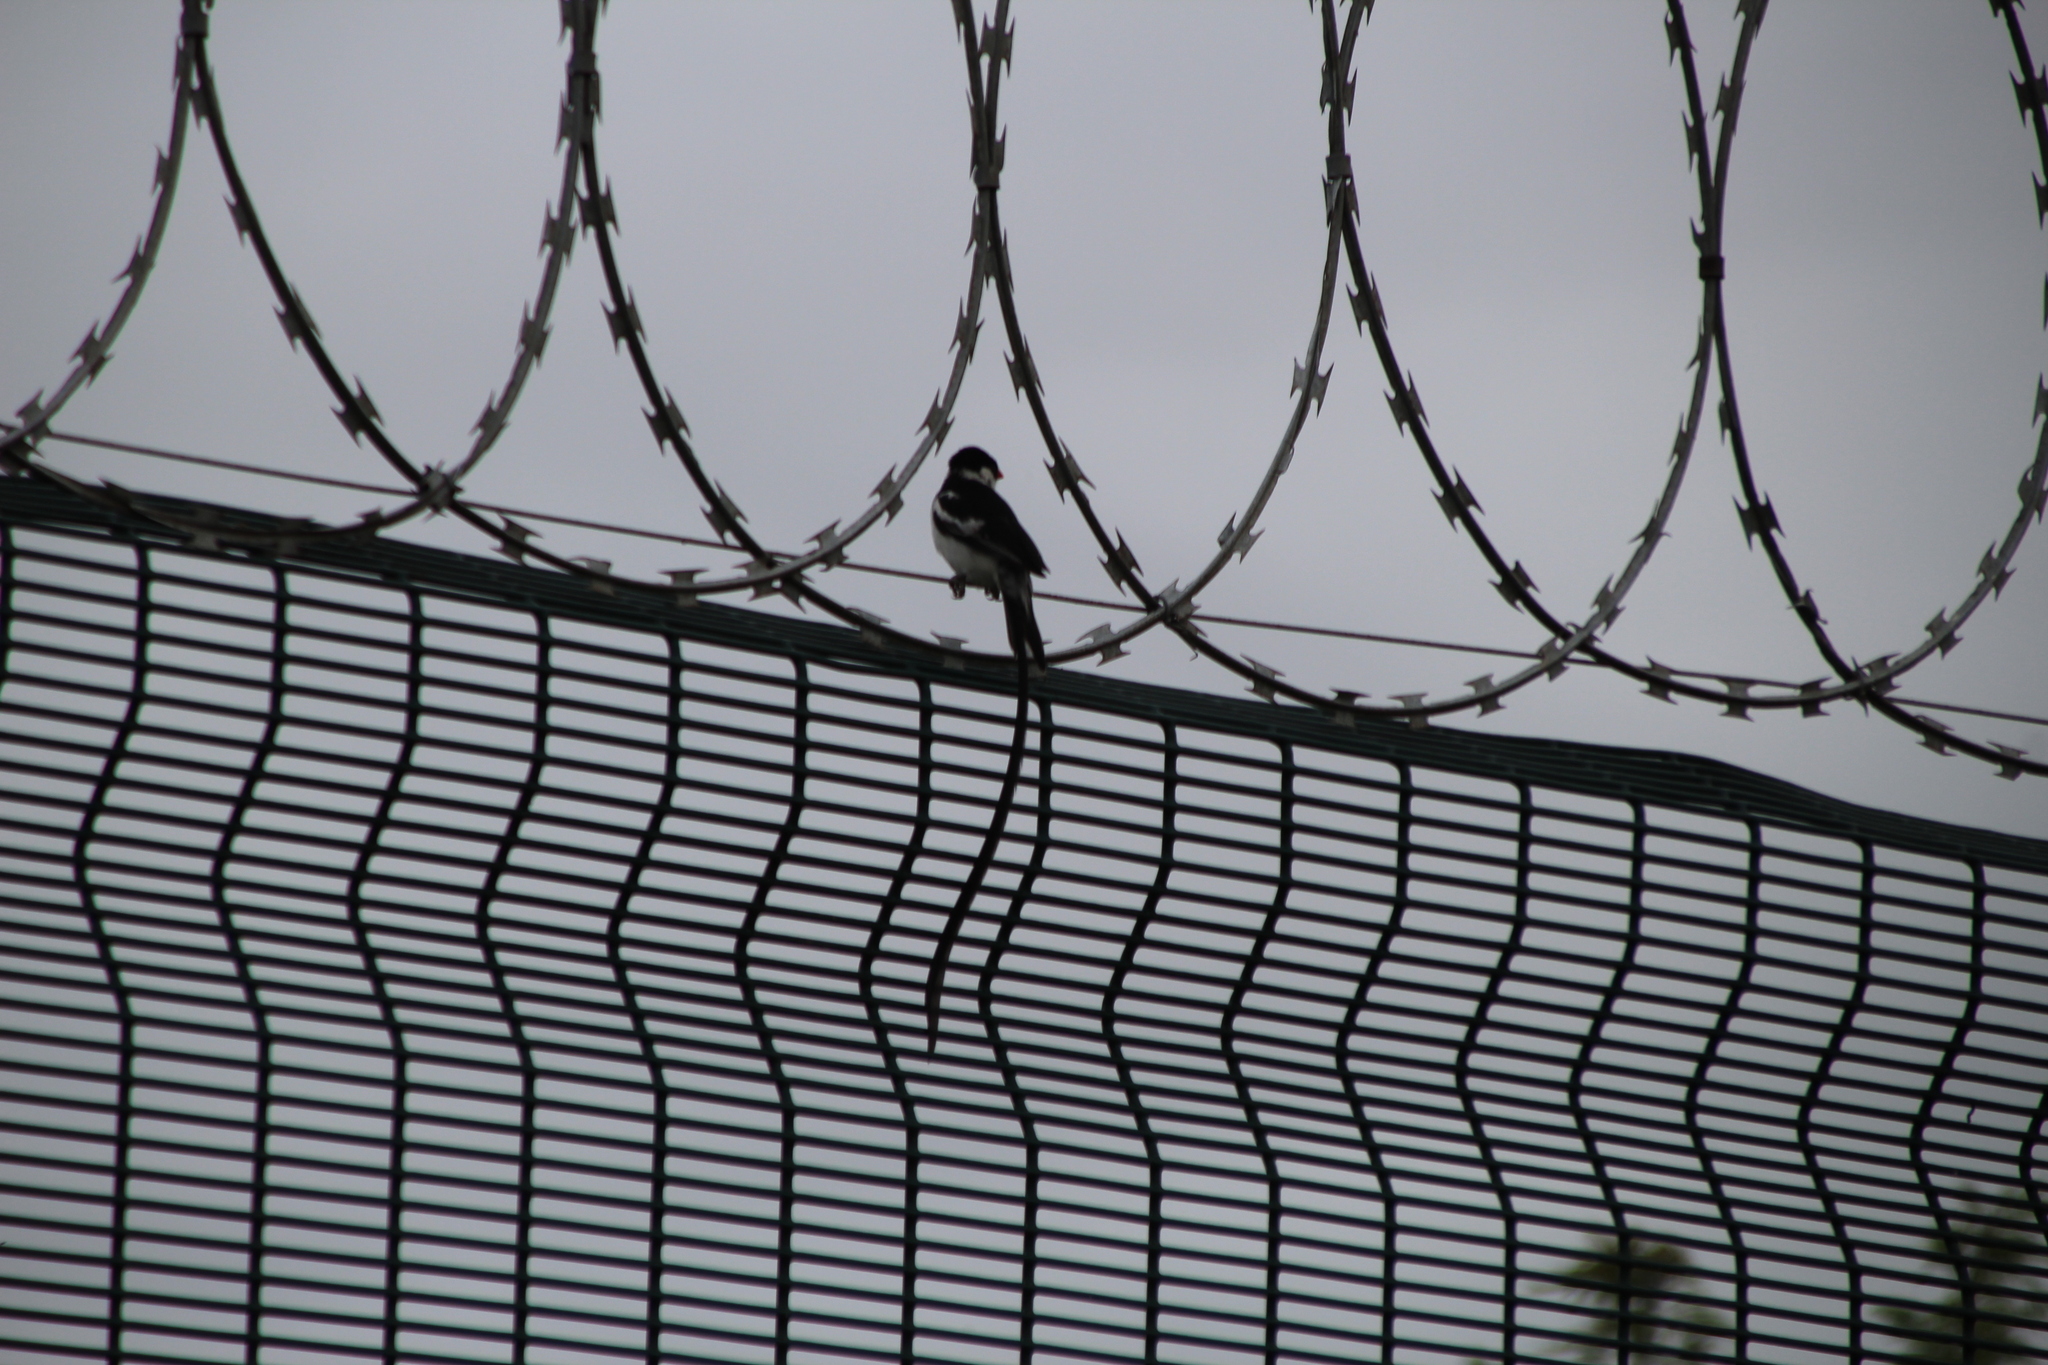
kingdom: Animalia
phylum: Chordata
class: Aves
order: Passeriformes
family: Viduidae
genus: Vidua
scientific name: Vidua macroura
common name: Pin-tailed whydah
